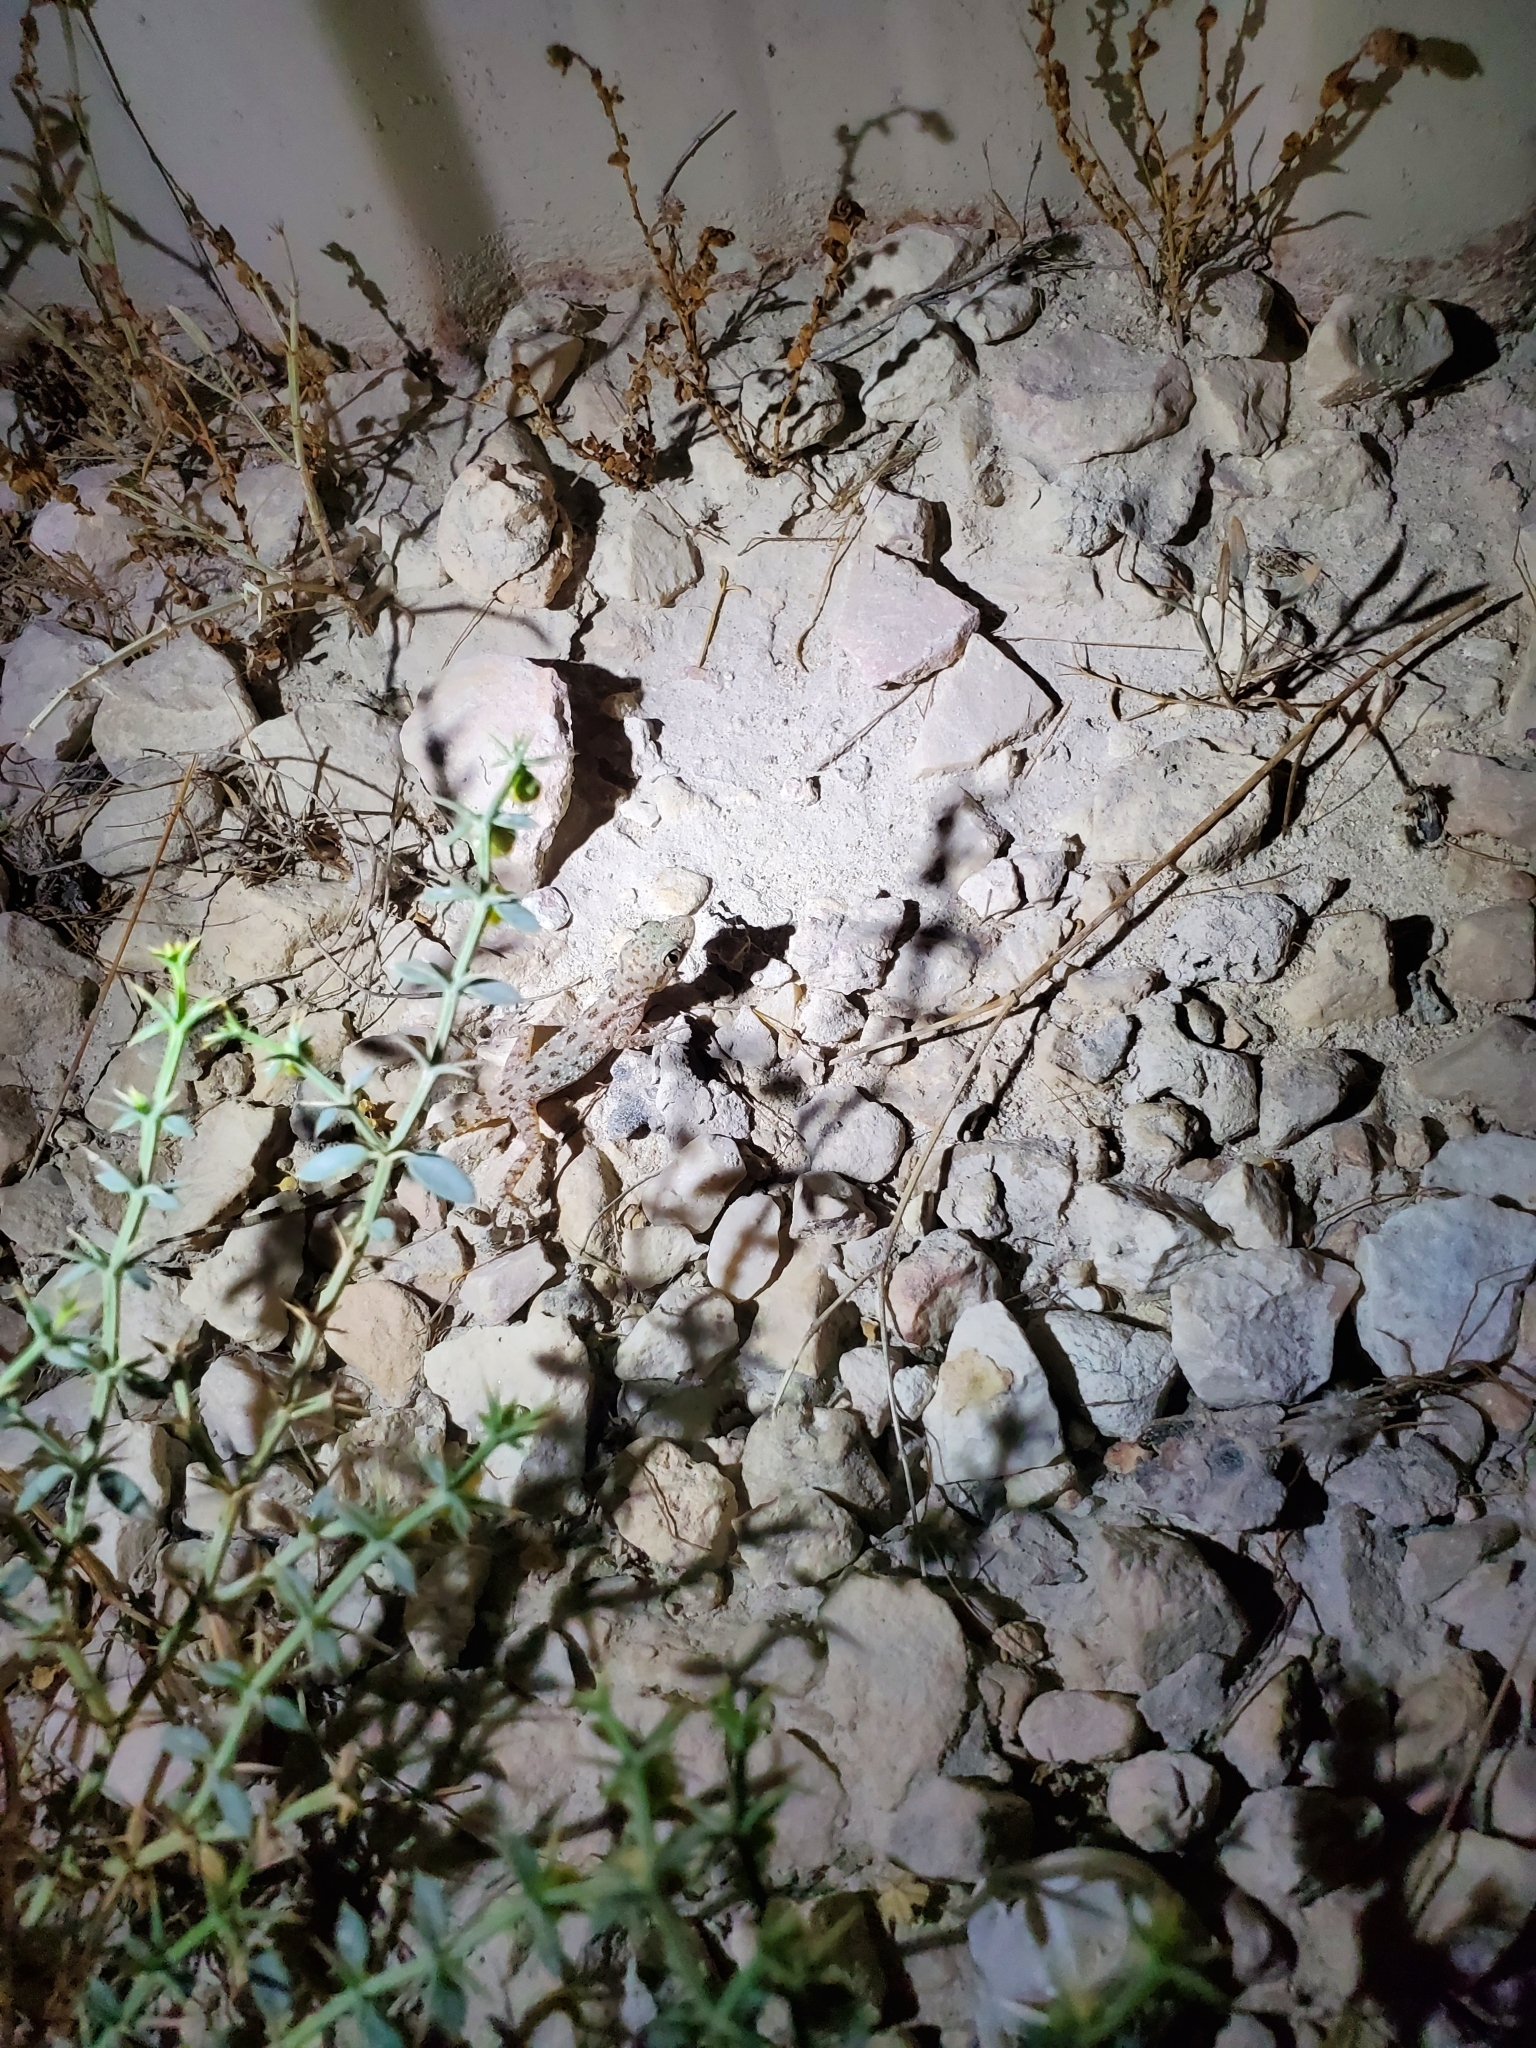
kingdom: Animalia
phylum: Chordata
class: Squamata
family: Gekkonidae
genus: Cyrtopodion
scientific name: Cyrtopodion scabrum
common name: Rough-tailed gecko
